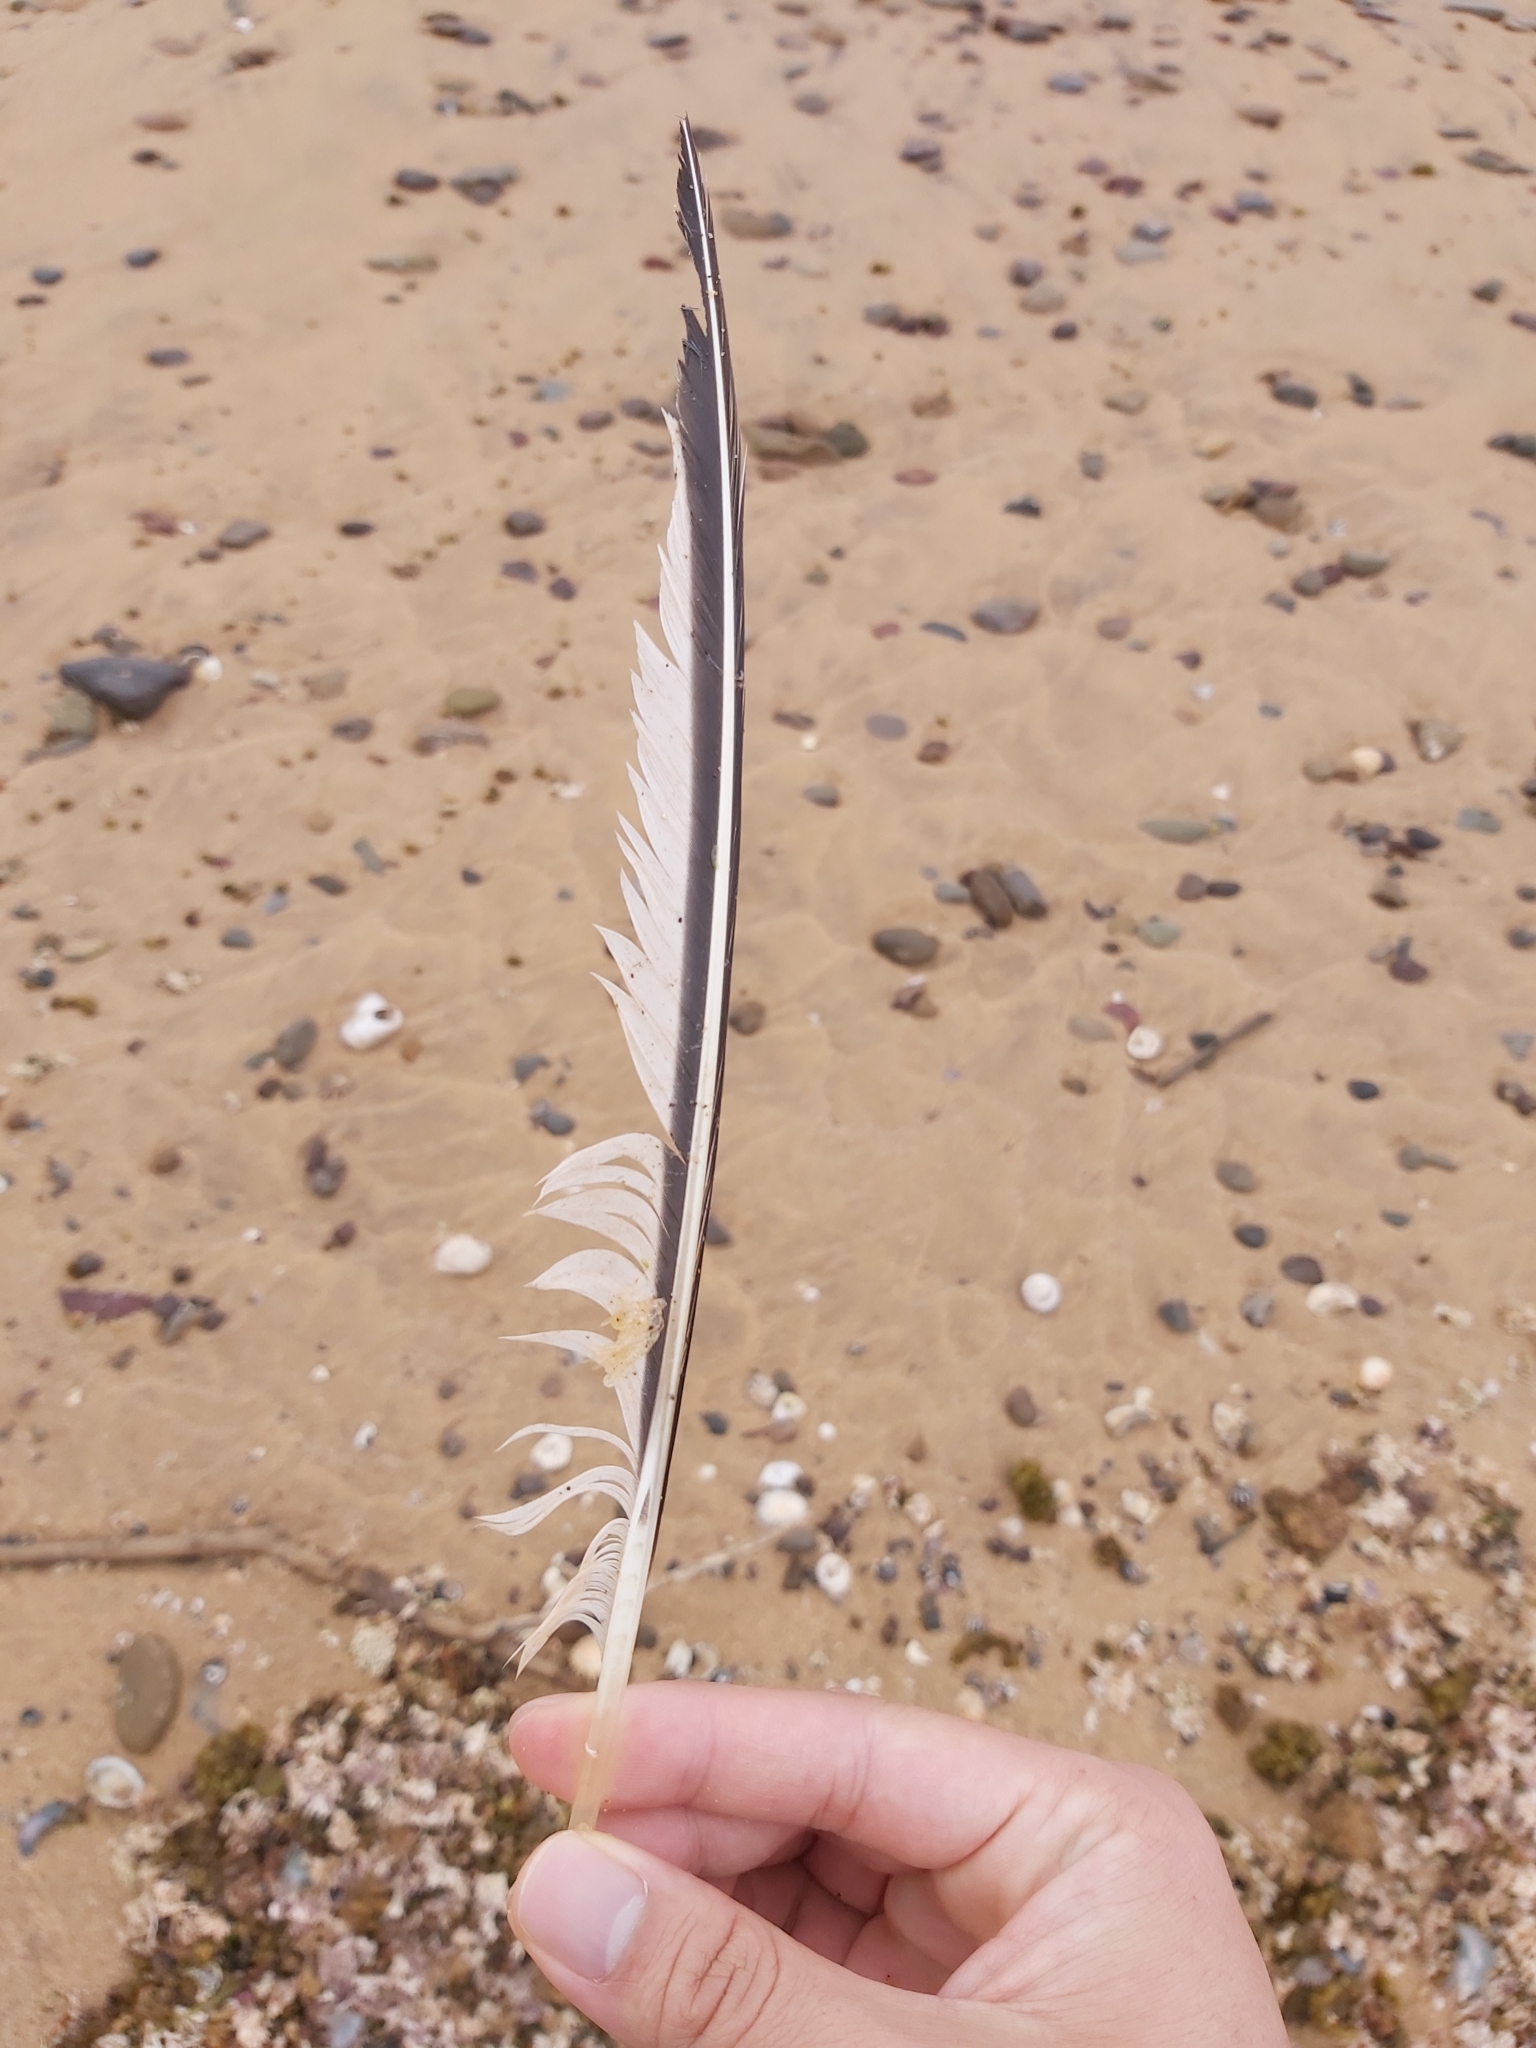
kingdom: Animalia
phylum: Chordata
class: Aves
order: Charadriiformes
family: Laridae
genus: Thalasseus
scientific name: Thalasseus bergii
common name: Greater crested tern
